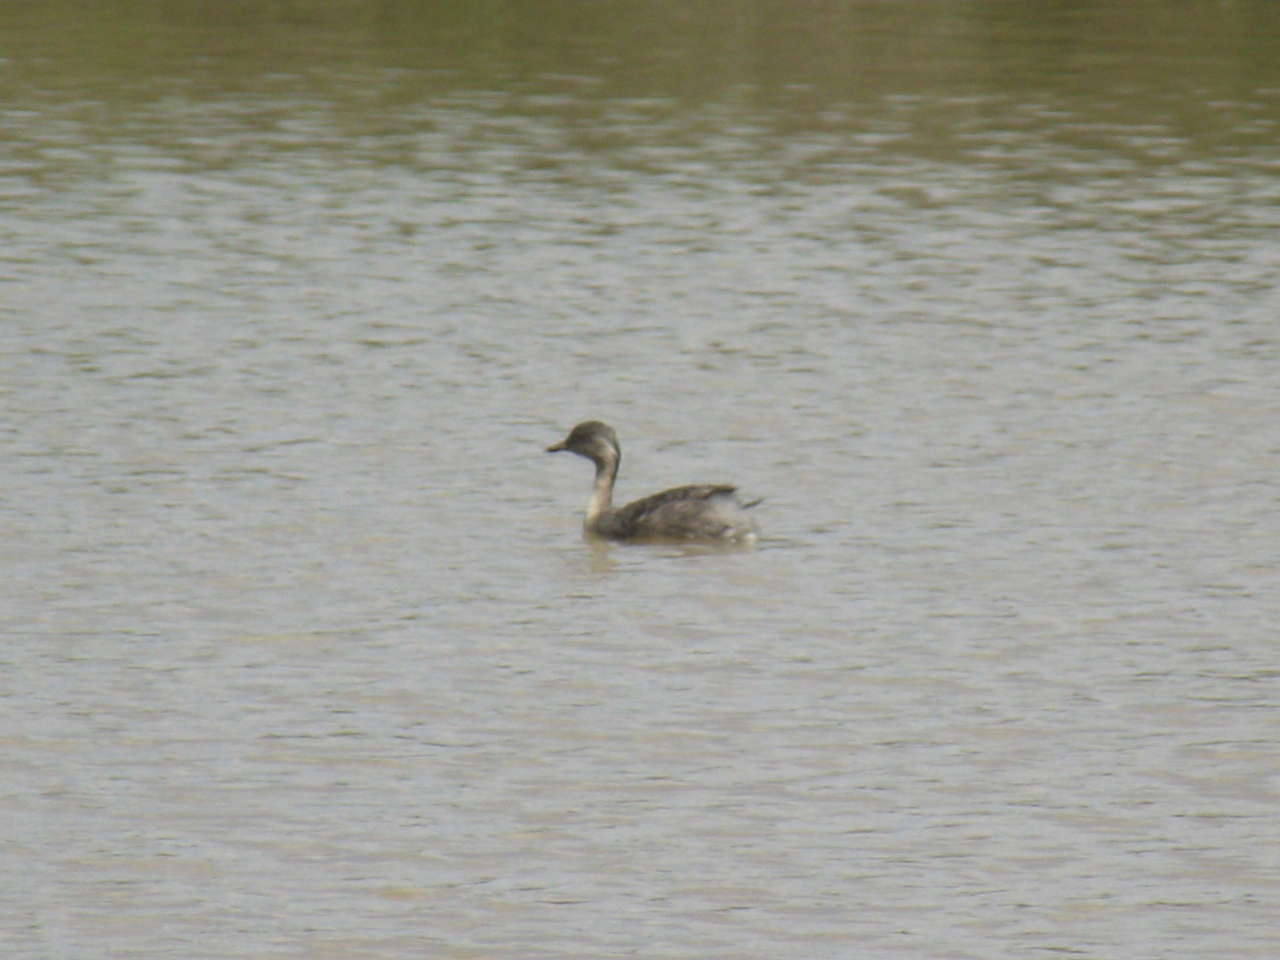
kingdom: Animalia
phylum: Chordata
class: Aves
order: Podicipediformes
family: Podicipedidae
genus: Poliocephalus
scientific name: Poliocephalus poliocephalus
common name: Hoary-headed grebe
